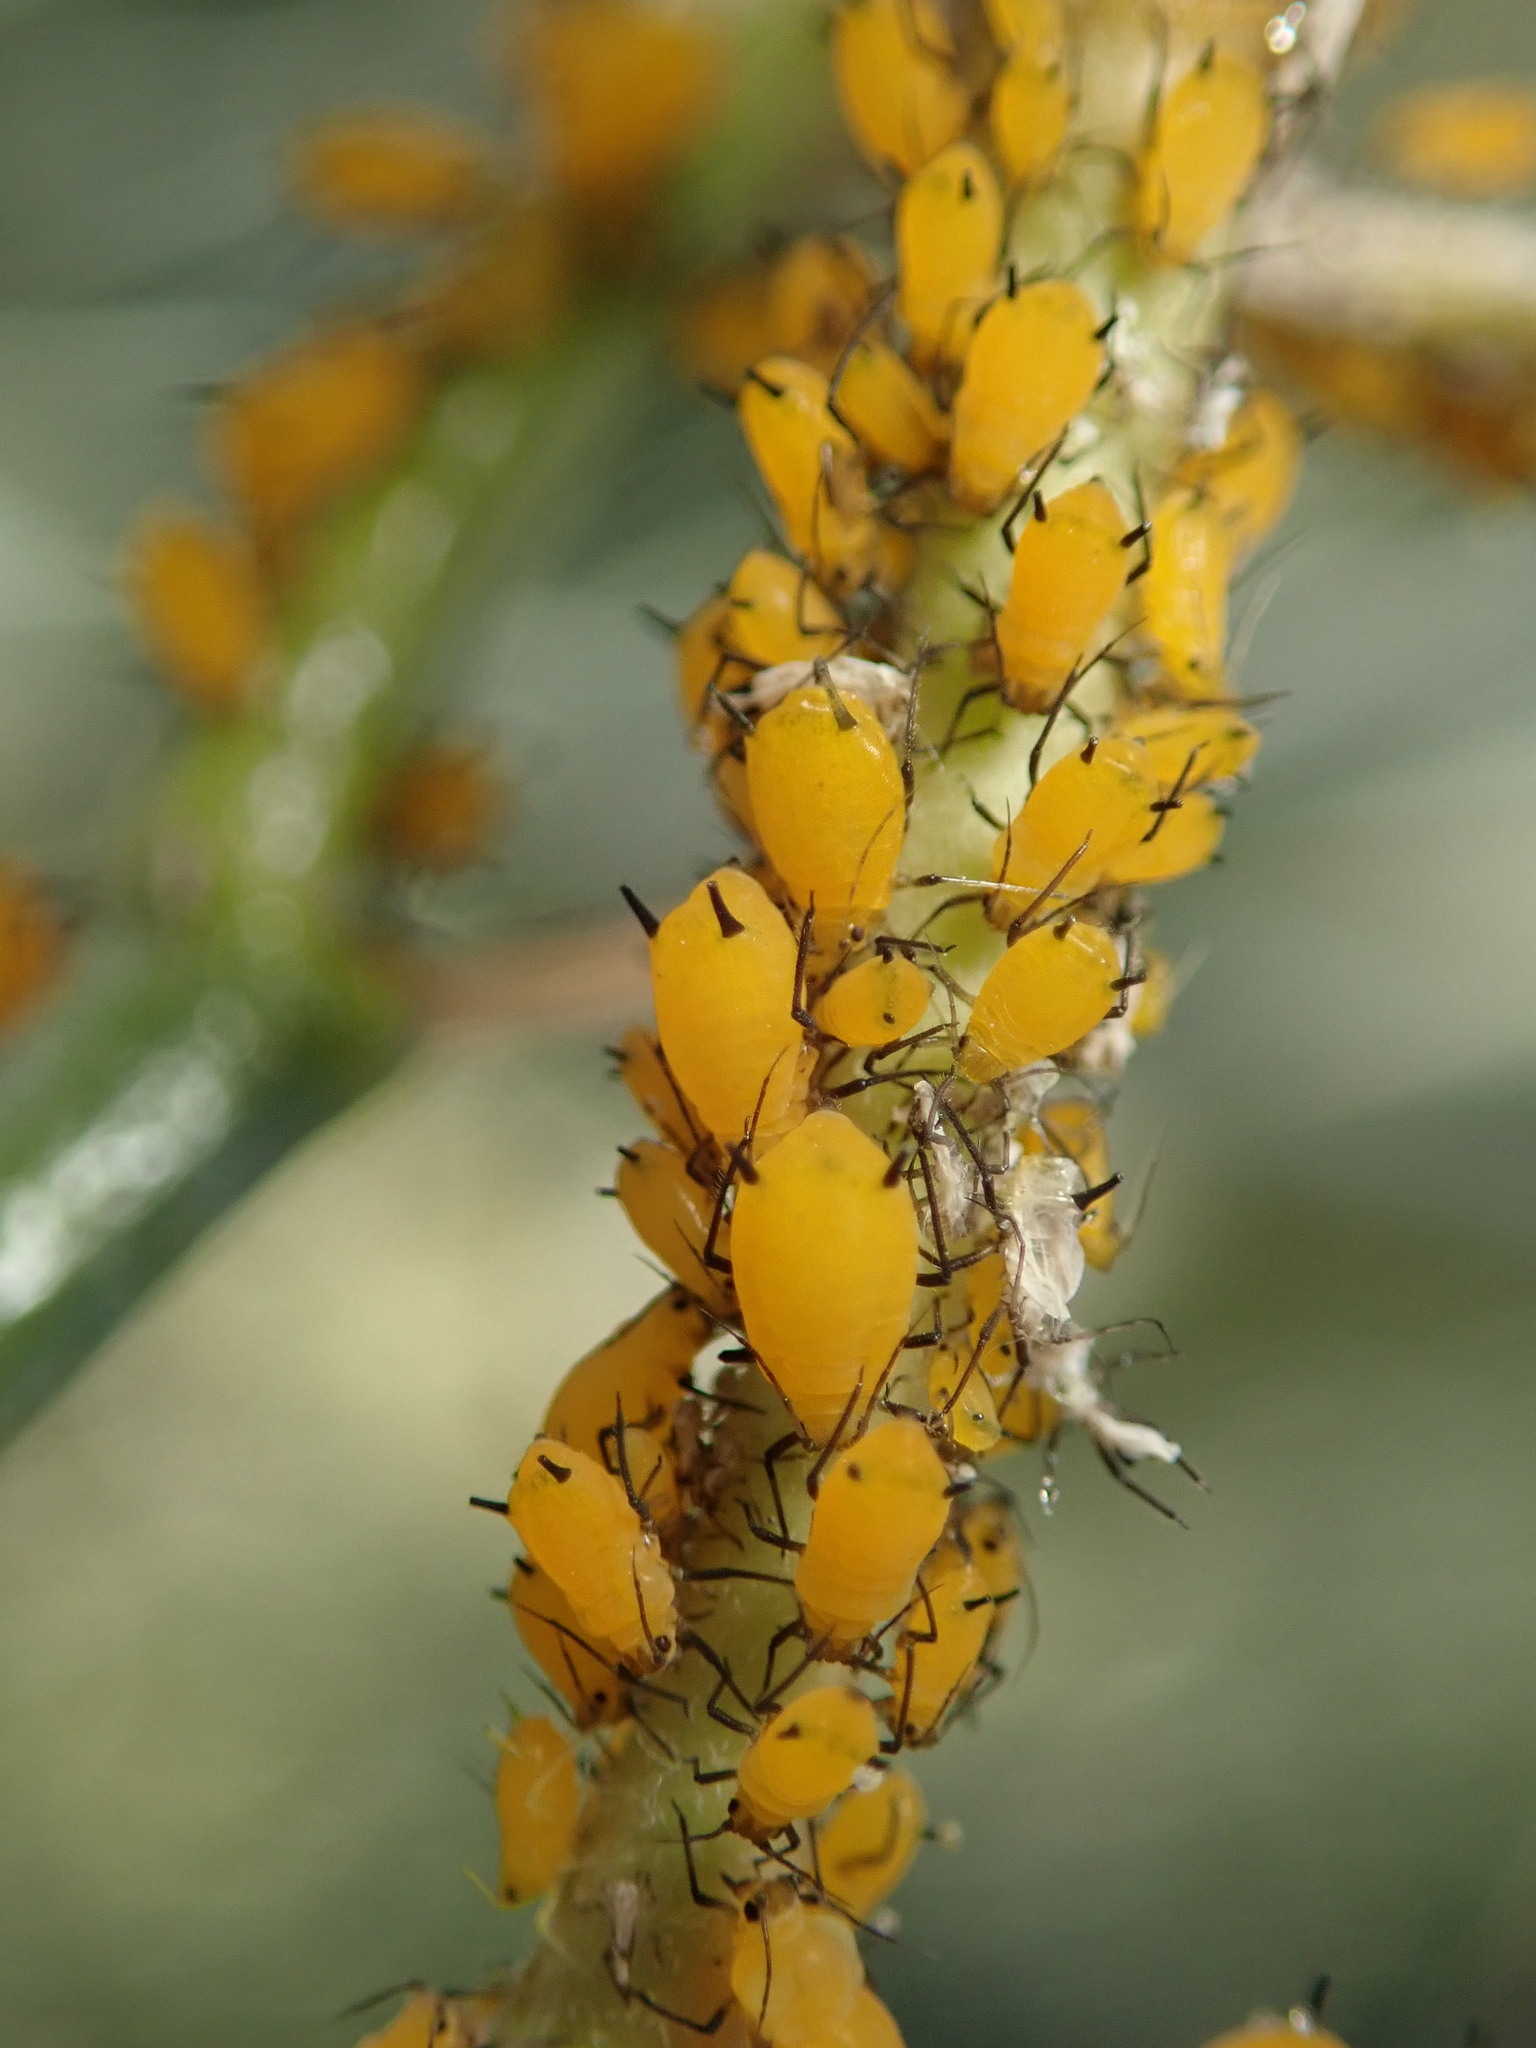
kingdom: Animalia
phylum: Arthropoda
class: Insecta
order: Hemiptera
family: Aphididae
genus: Aphis
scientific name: Aphis nerii
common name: Oleander aphid
